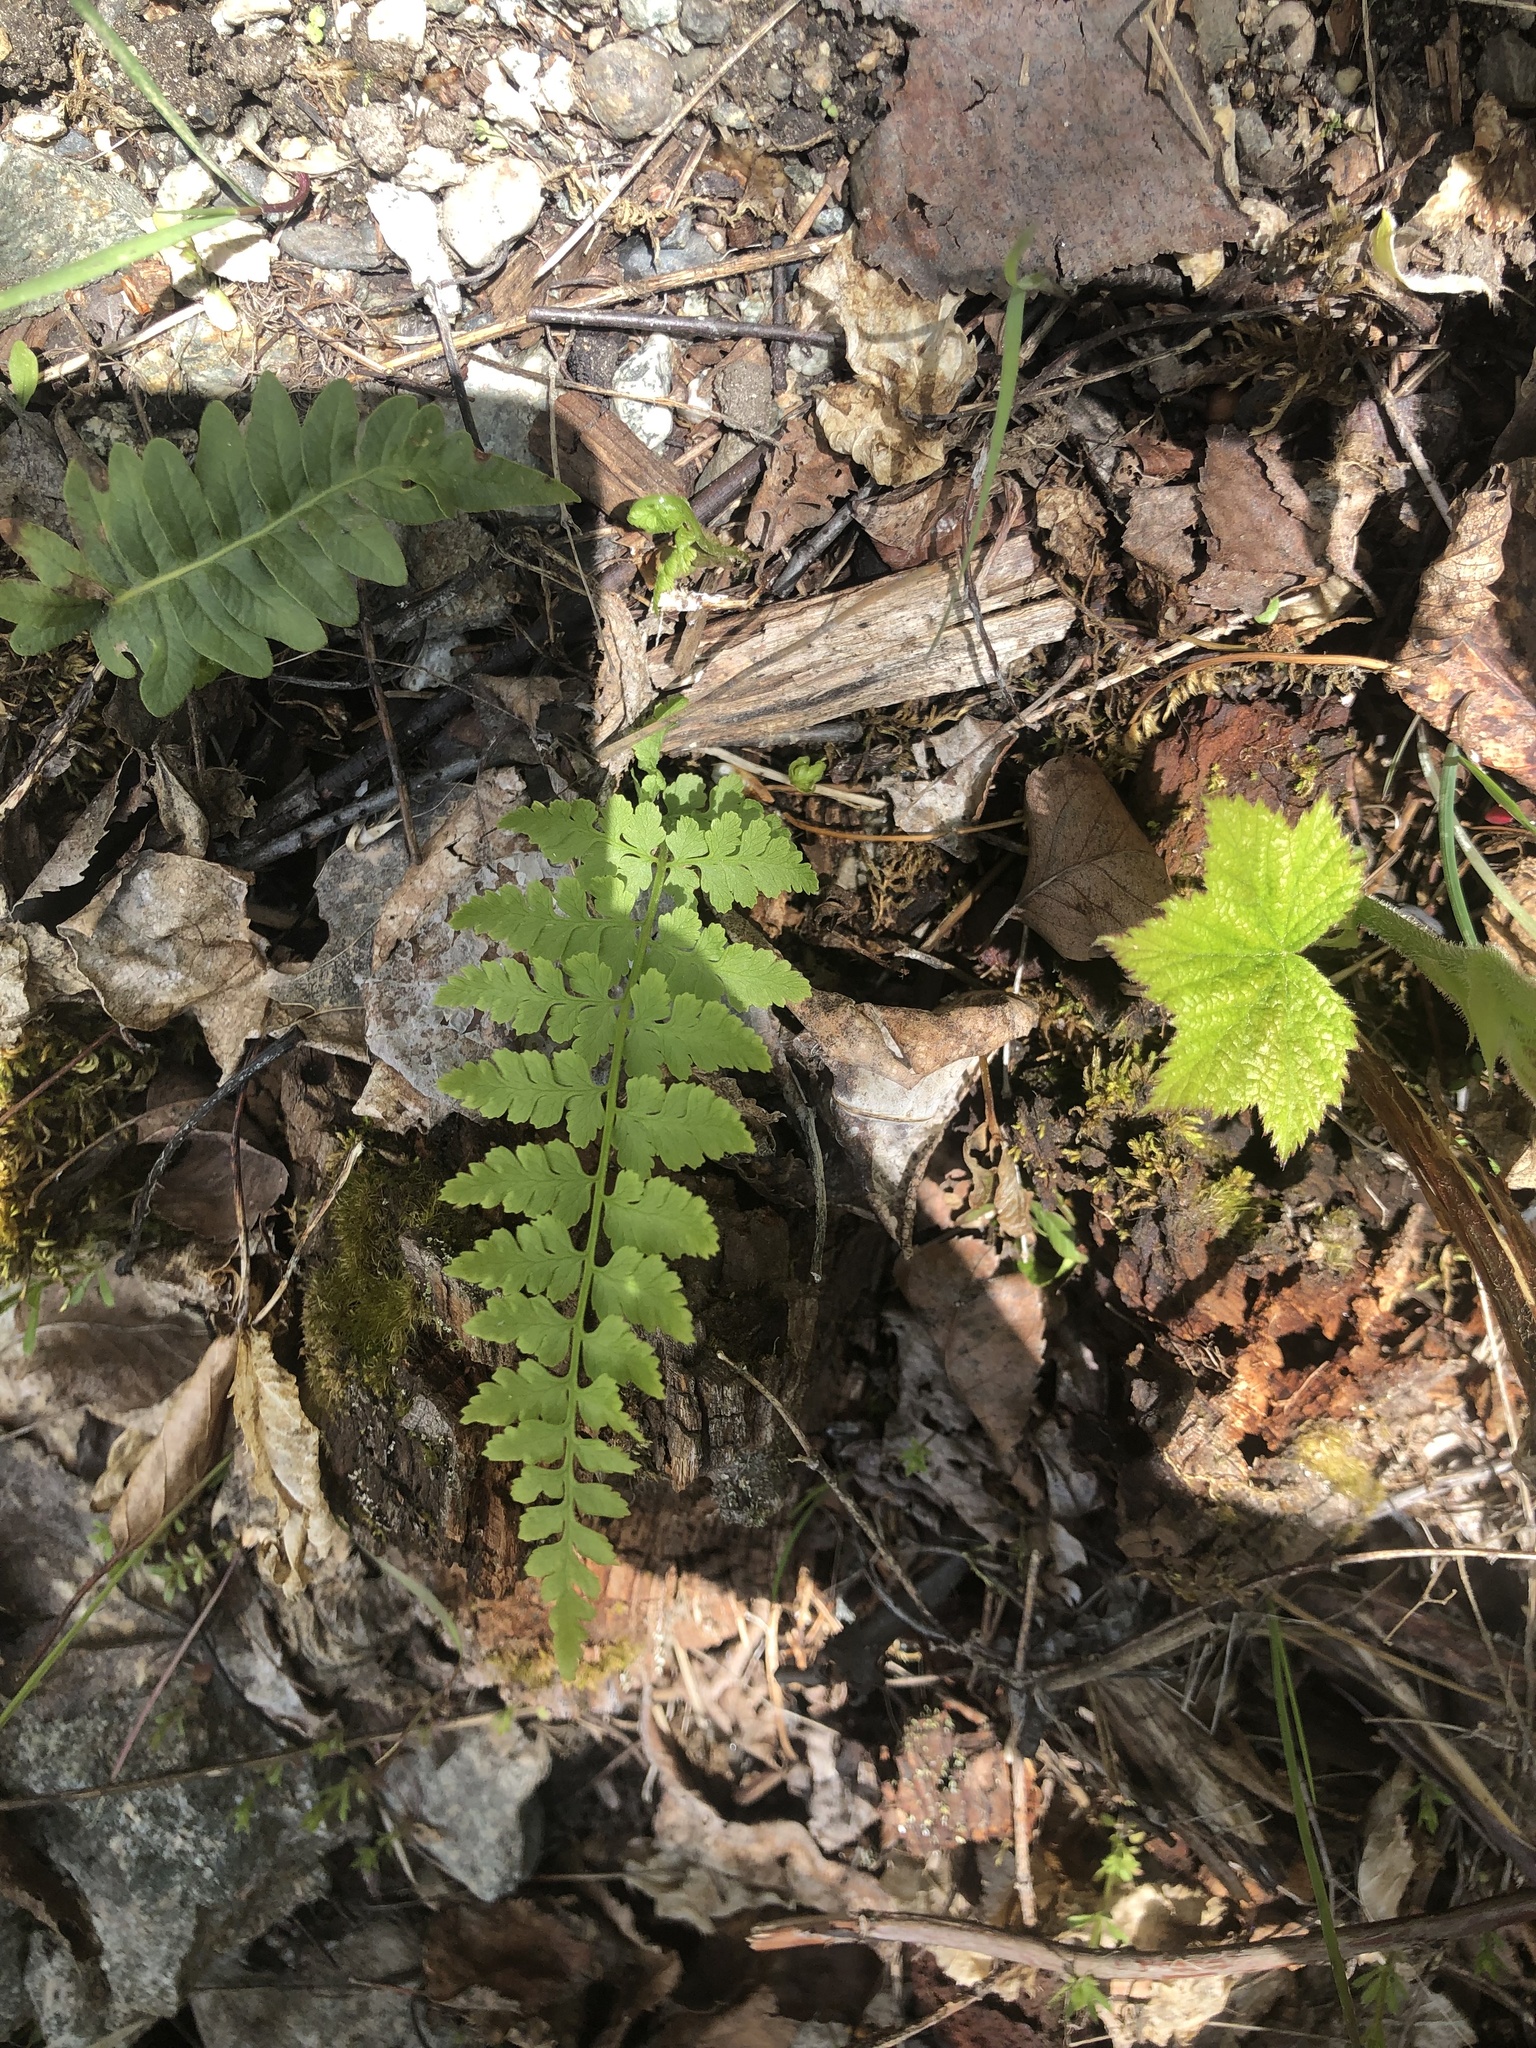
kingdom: Plantae
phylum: Tracheophyta
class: Polypodiopsida
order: Polypodiales
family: Cystopteridaceae
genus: Cystopteris
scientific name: Cystopteris fragilis
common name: Brittle bladder fern
